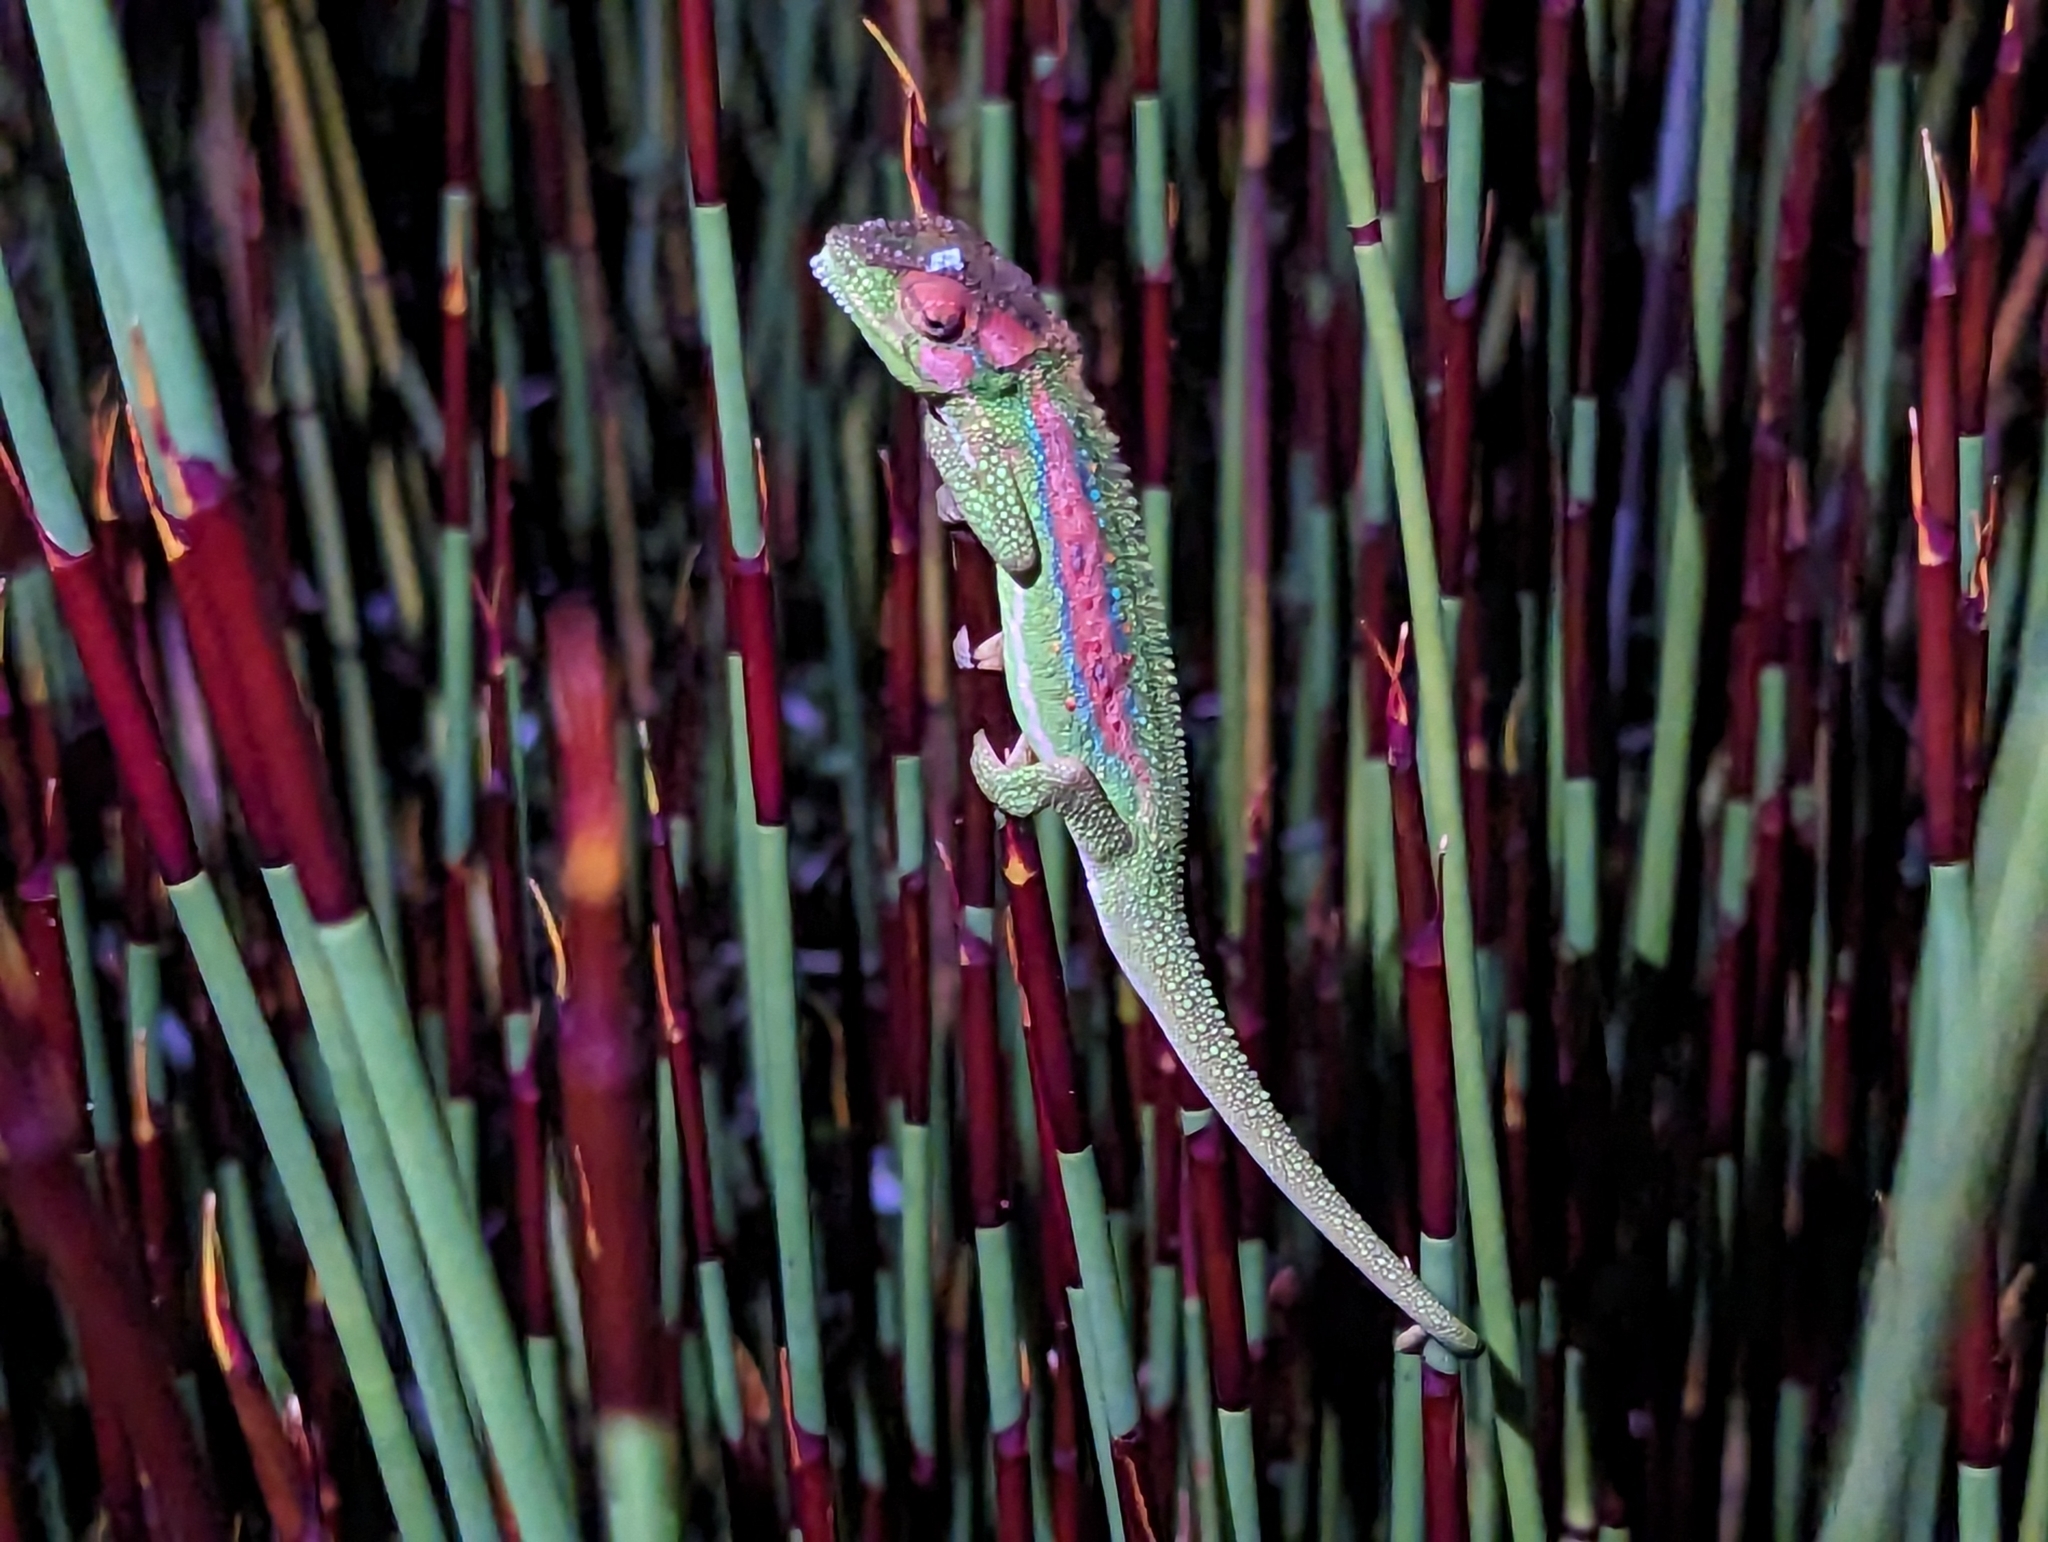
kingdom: Animalia
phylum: Chordata
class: Squamata
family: Chamaeleonidae
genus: Bradypodion
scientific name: Bradypodion pumilum
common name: Cape dwarf chameleon
